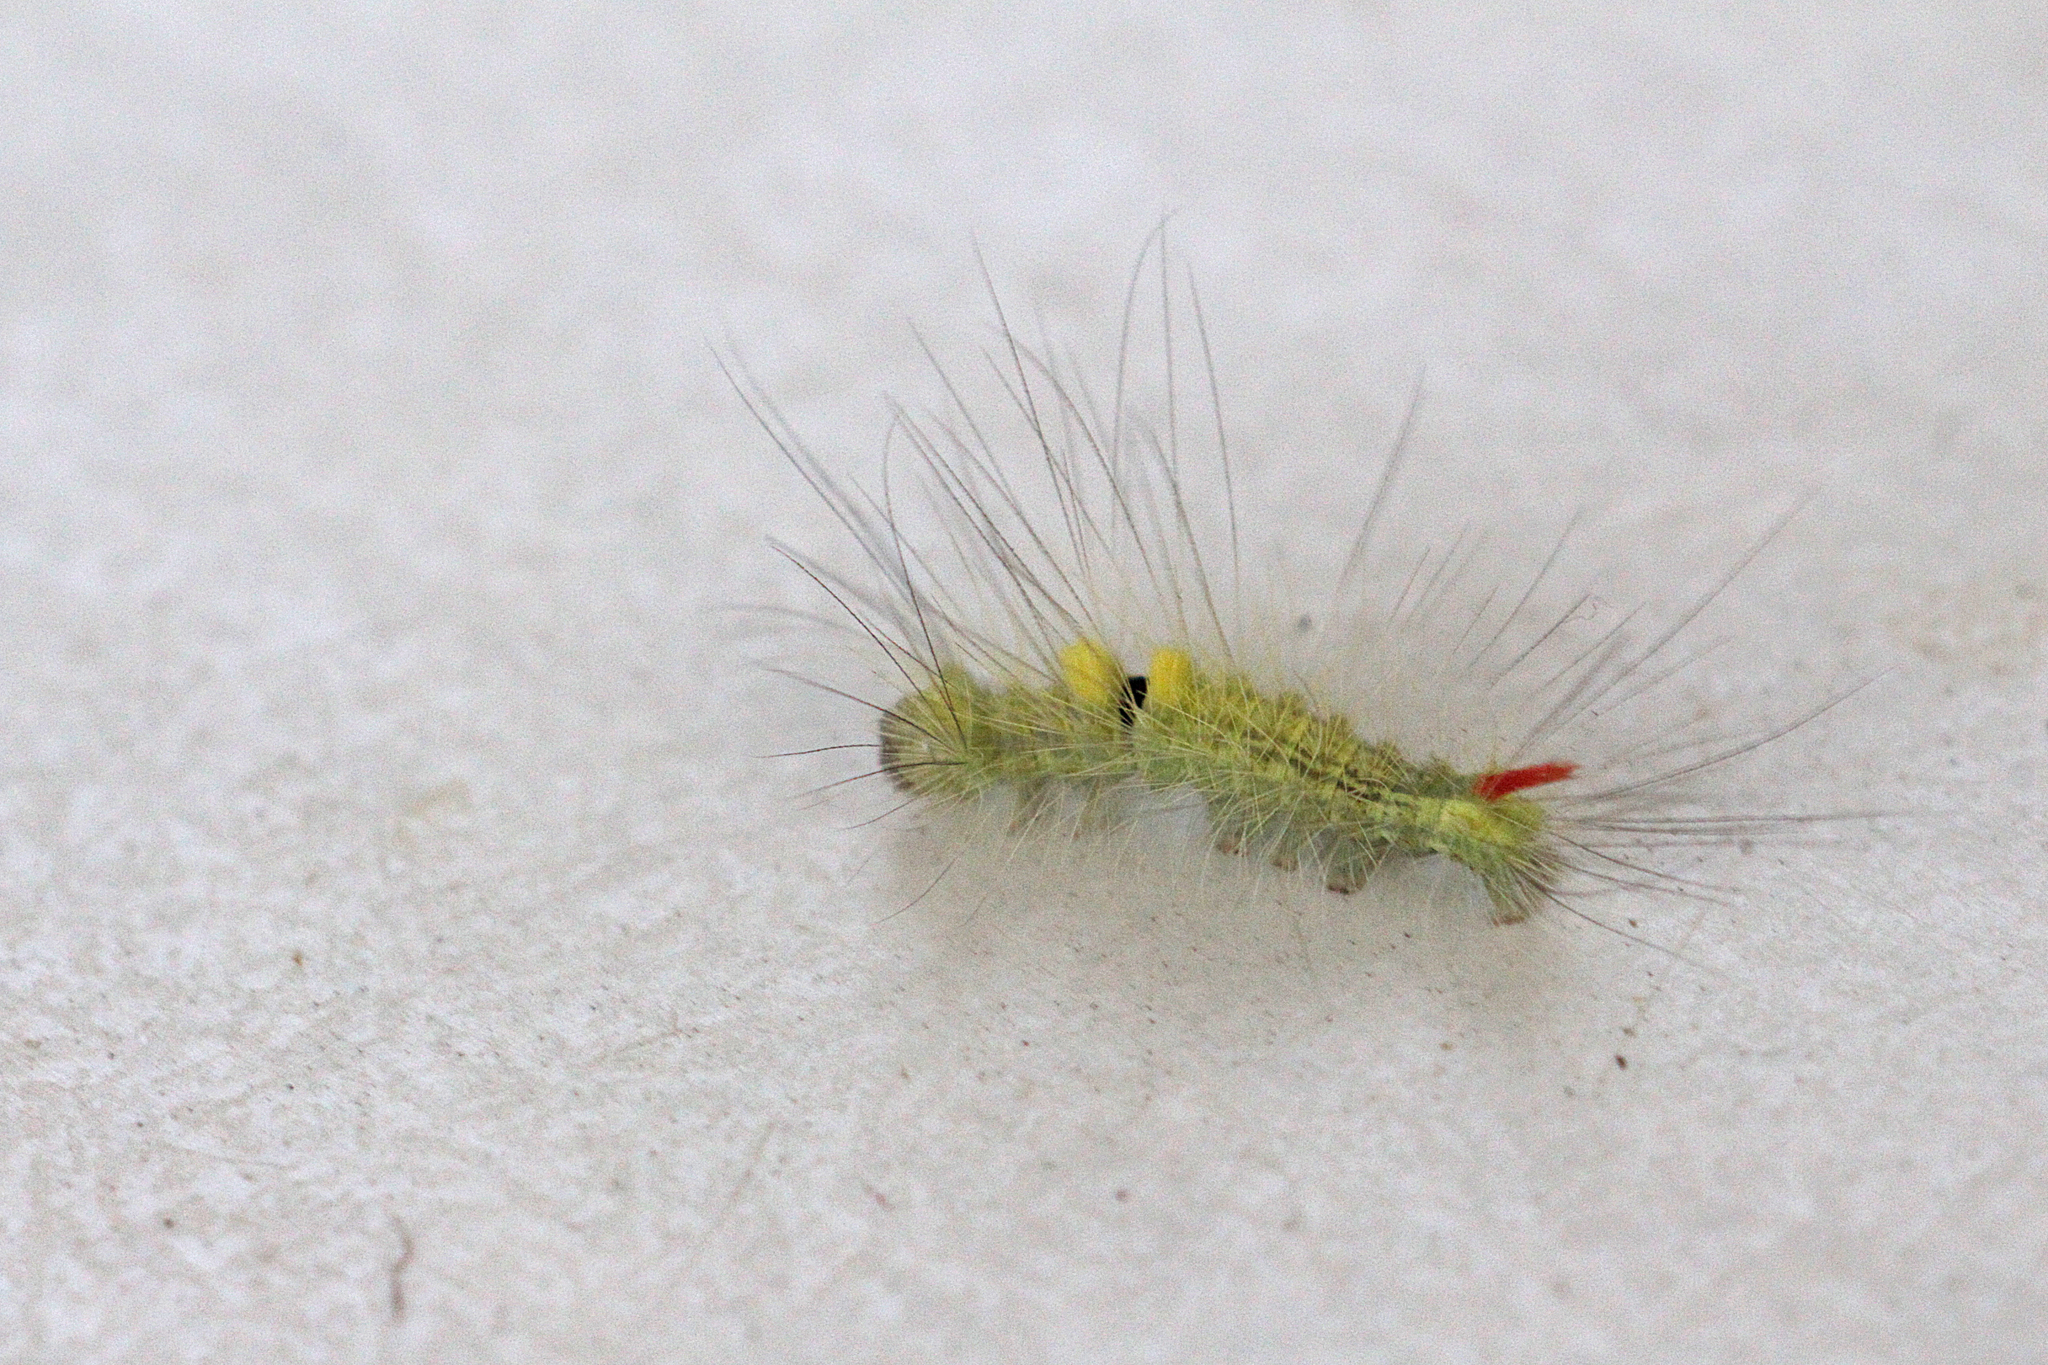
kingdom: Animalia
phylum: Arthropoda
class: Insecta
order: Lepidoptera
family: Erebidae
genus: Calliteara
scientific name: Calliteara pudibunda
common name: Pale tussock
